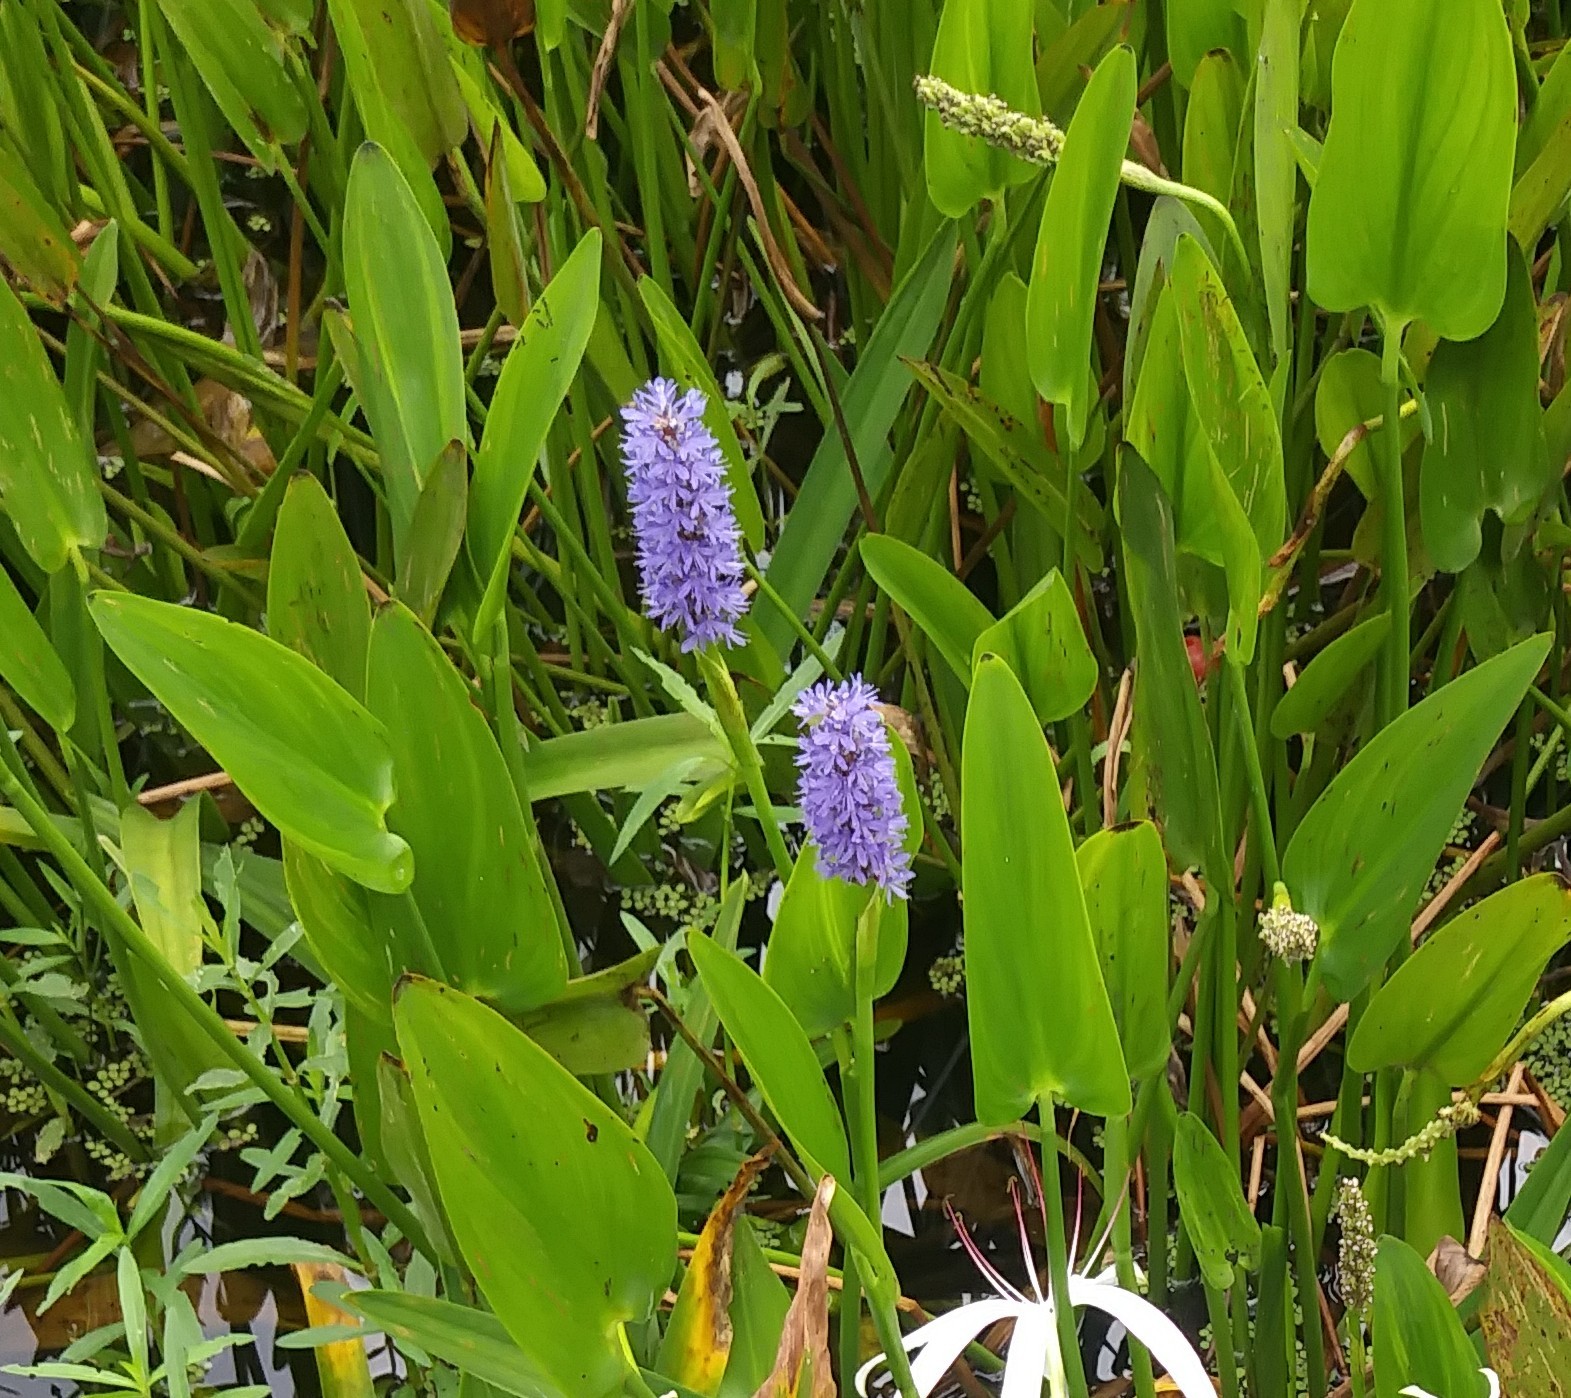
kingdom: Plantae
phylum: Tracheophyta
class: Liliopsida
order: Commelinales
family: Pontederiaceae
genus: Pontederia
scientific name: Pontederia cordata
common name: Pickerelweed
